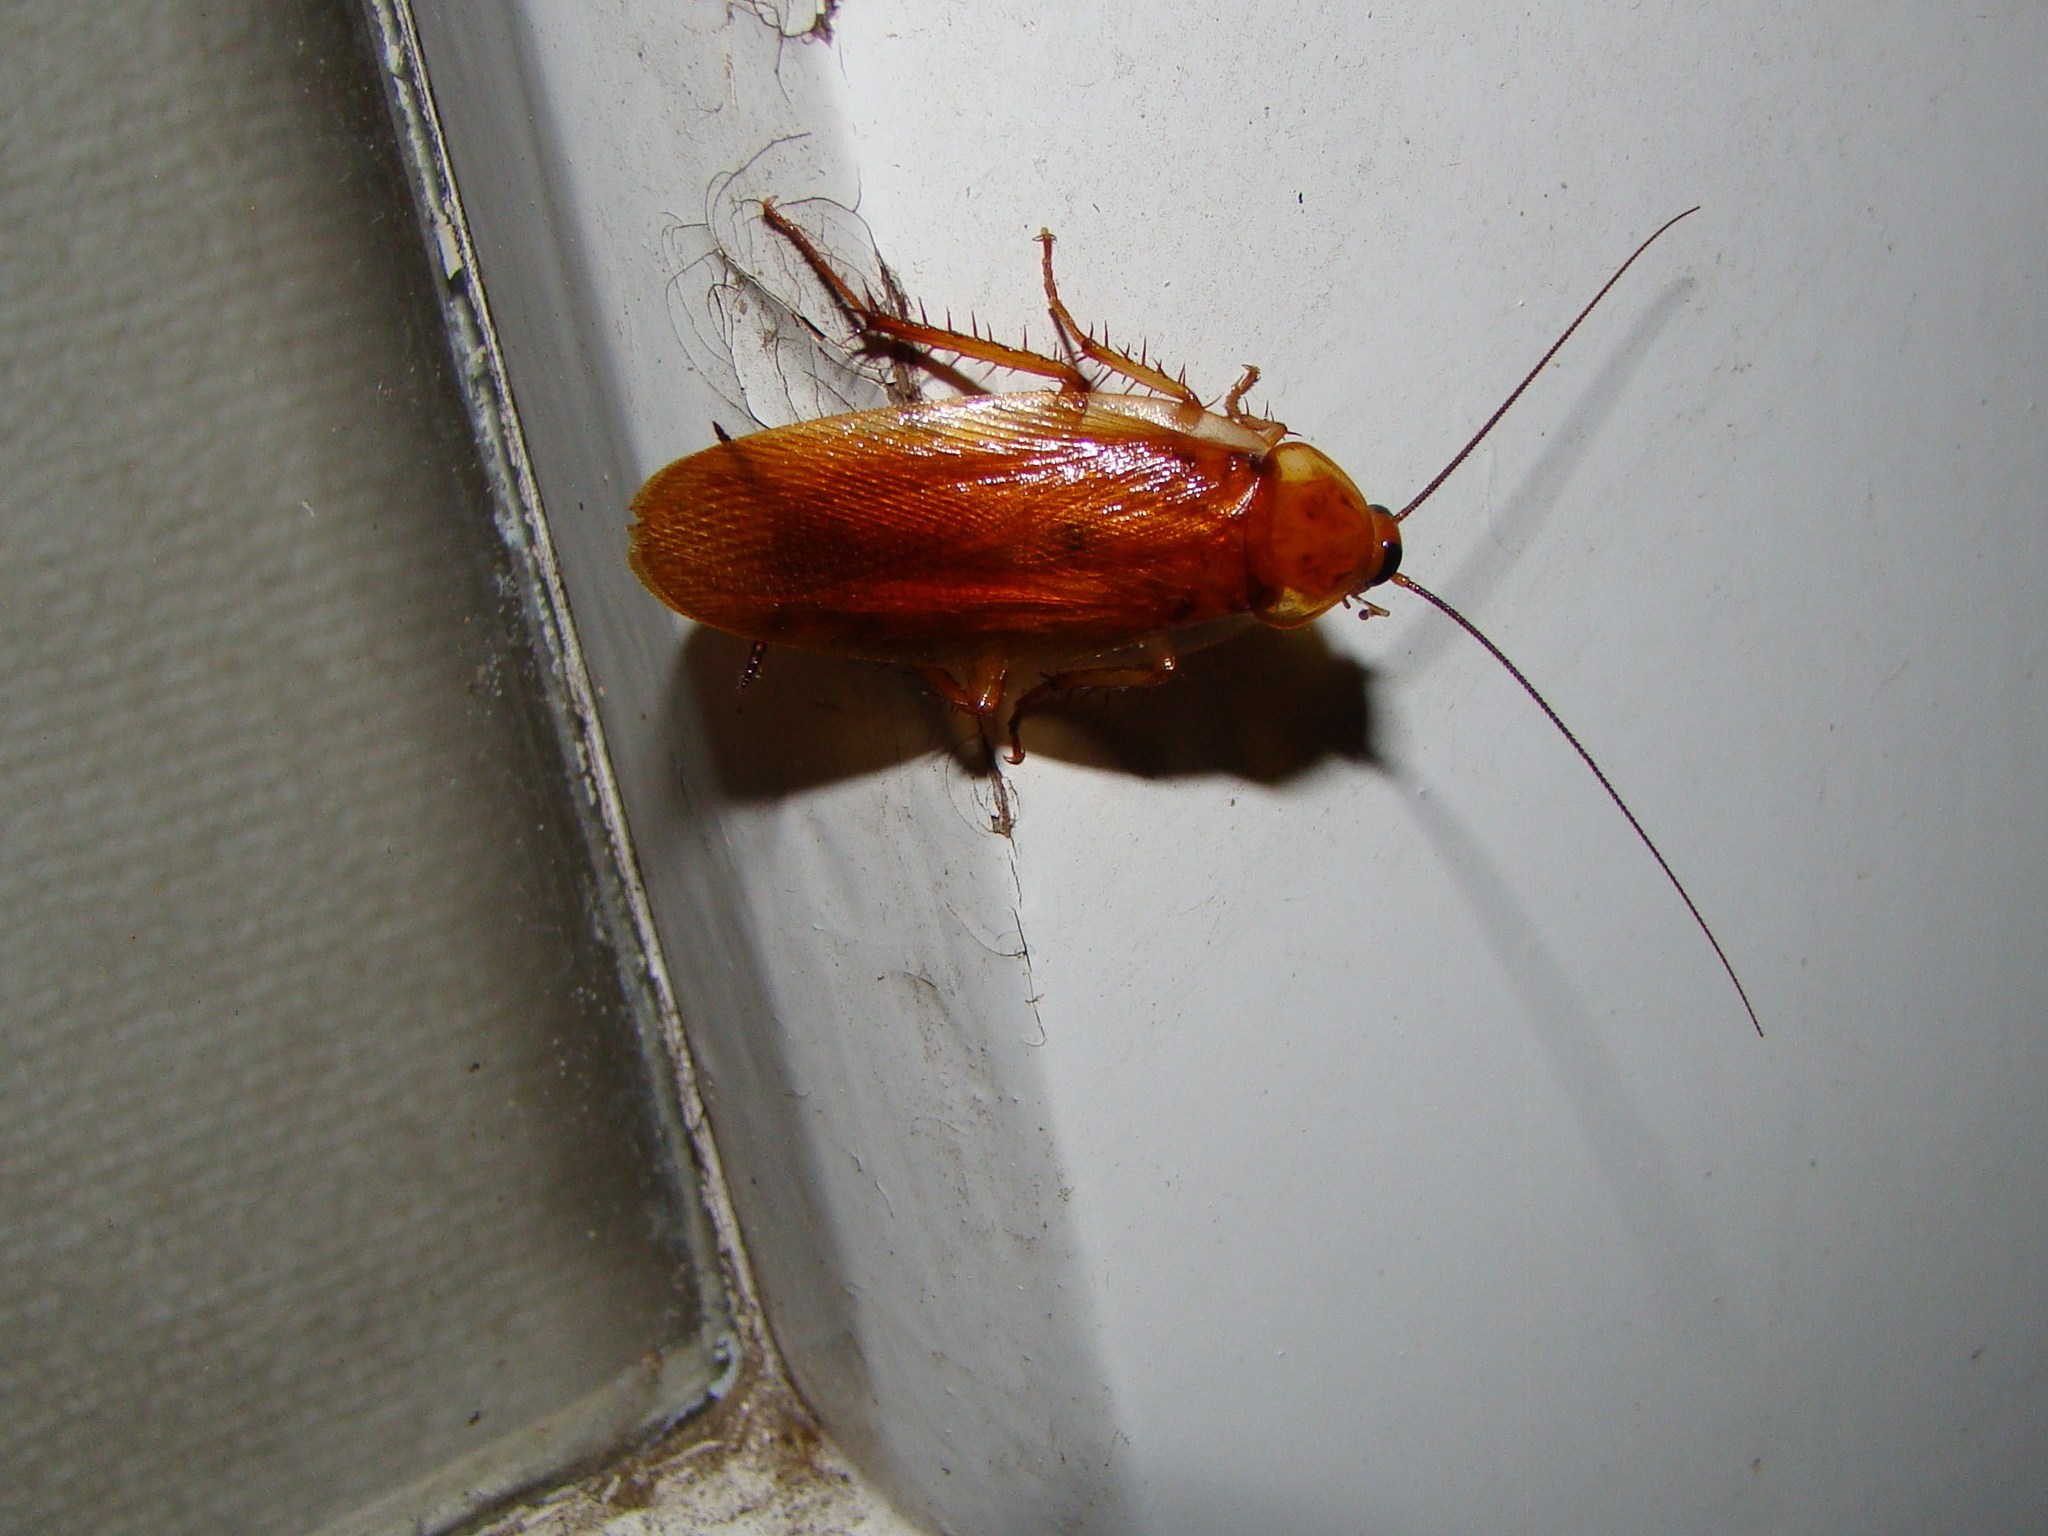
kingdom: Animalia
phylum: Arthropoda
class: Insecta
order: Blattodea
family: Ectobiidae
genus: Neotemnopteryx
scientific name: Neotemnopteryx fulva
